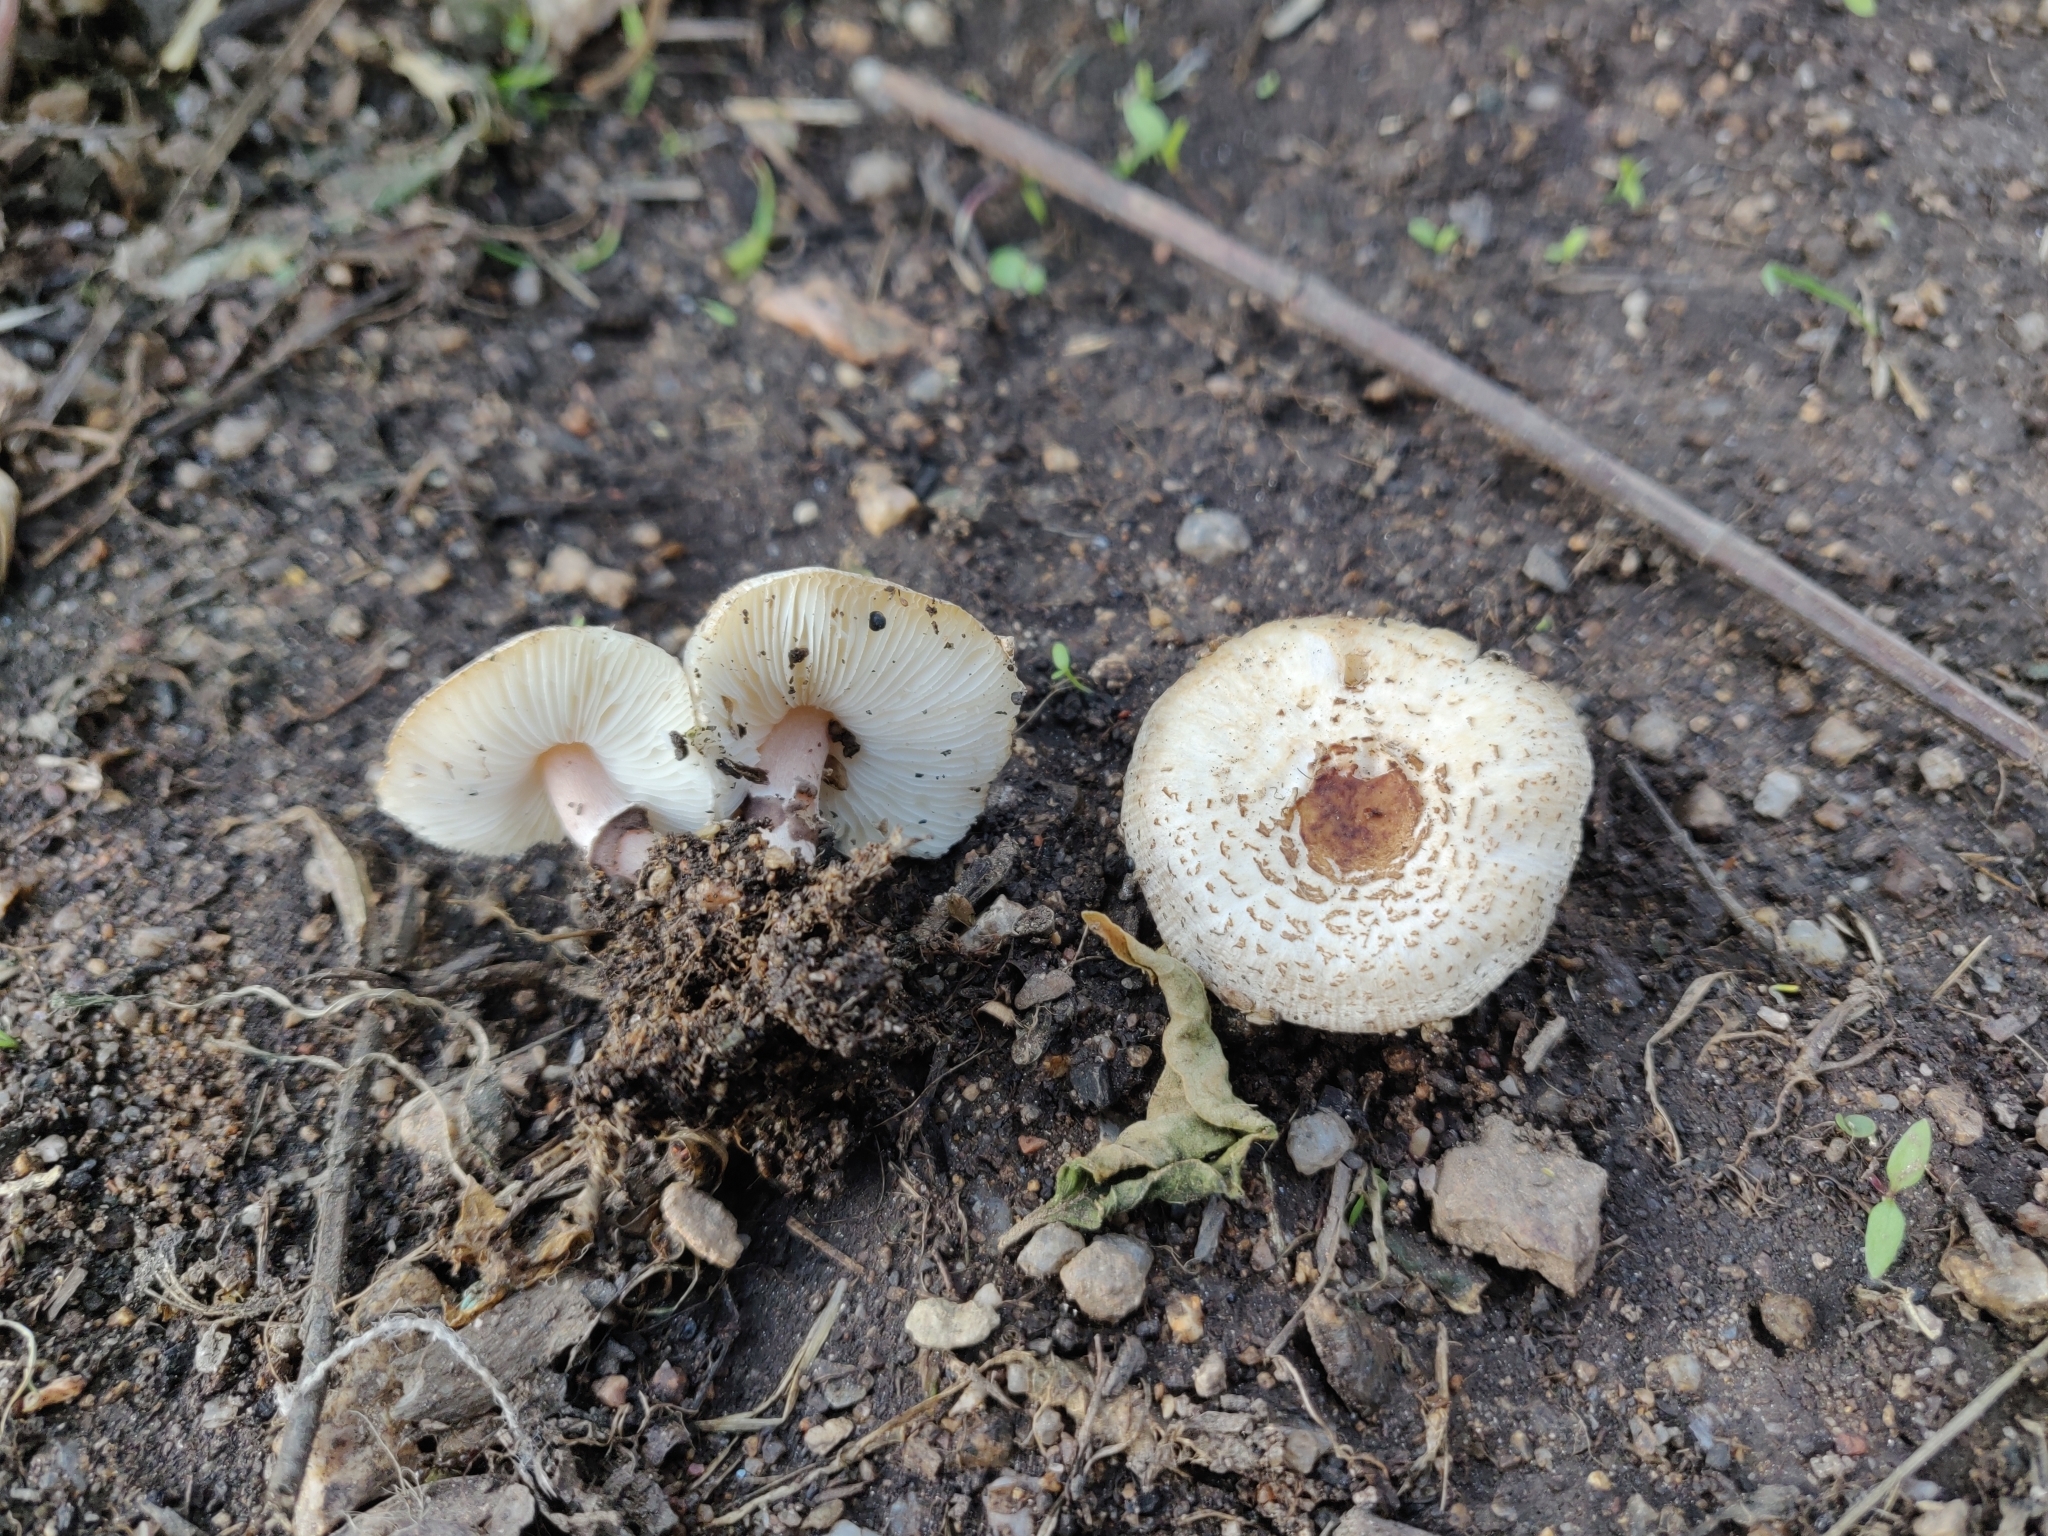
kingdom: Fungi
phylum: Basidiomycota
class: Agaricomycetes
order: Agaricales
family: Agaricaceae
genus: Lepiota
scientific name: Lepiota lilacea
